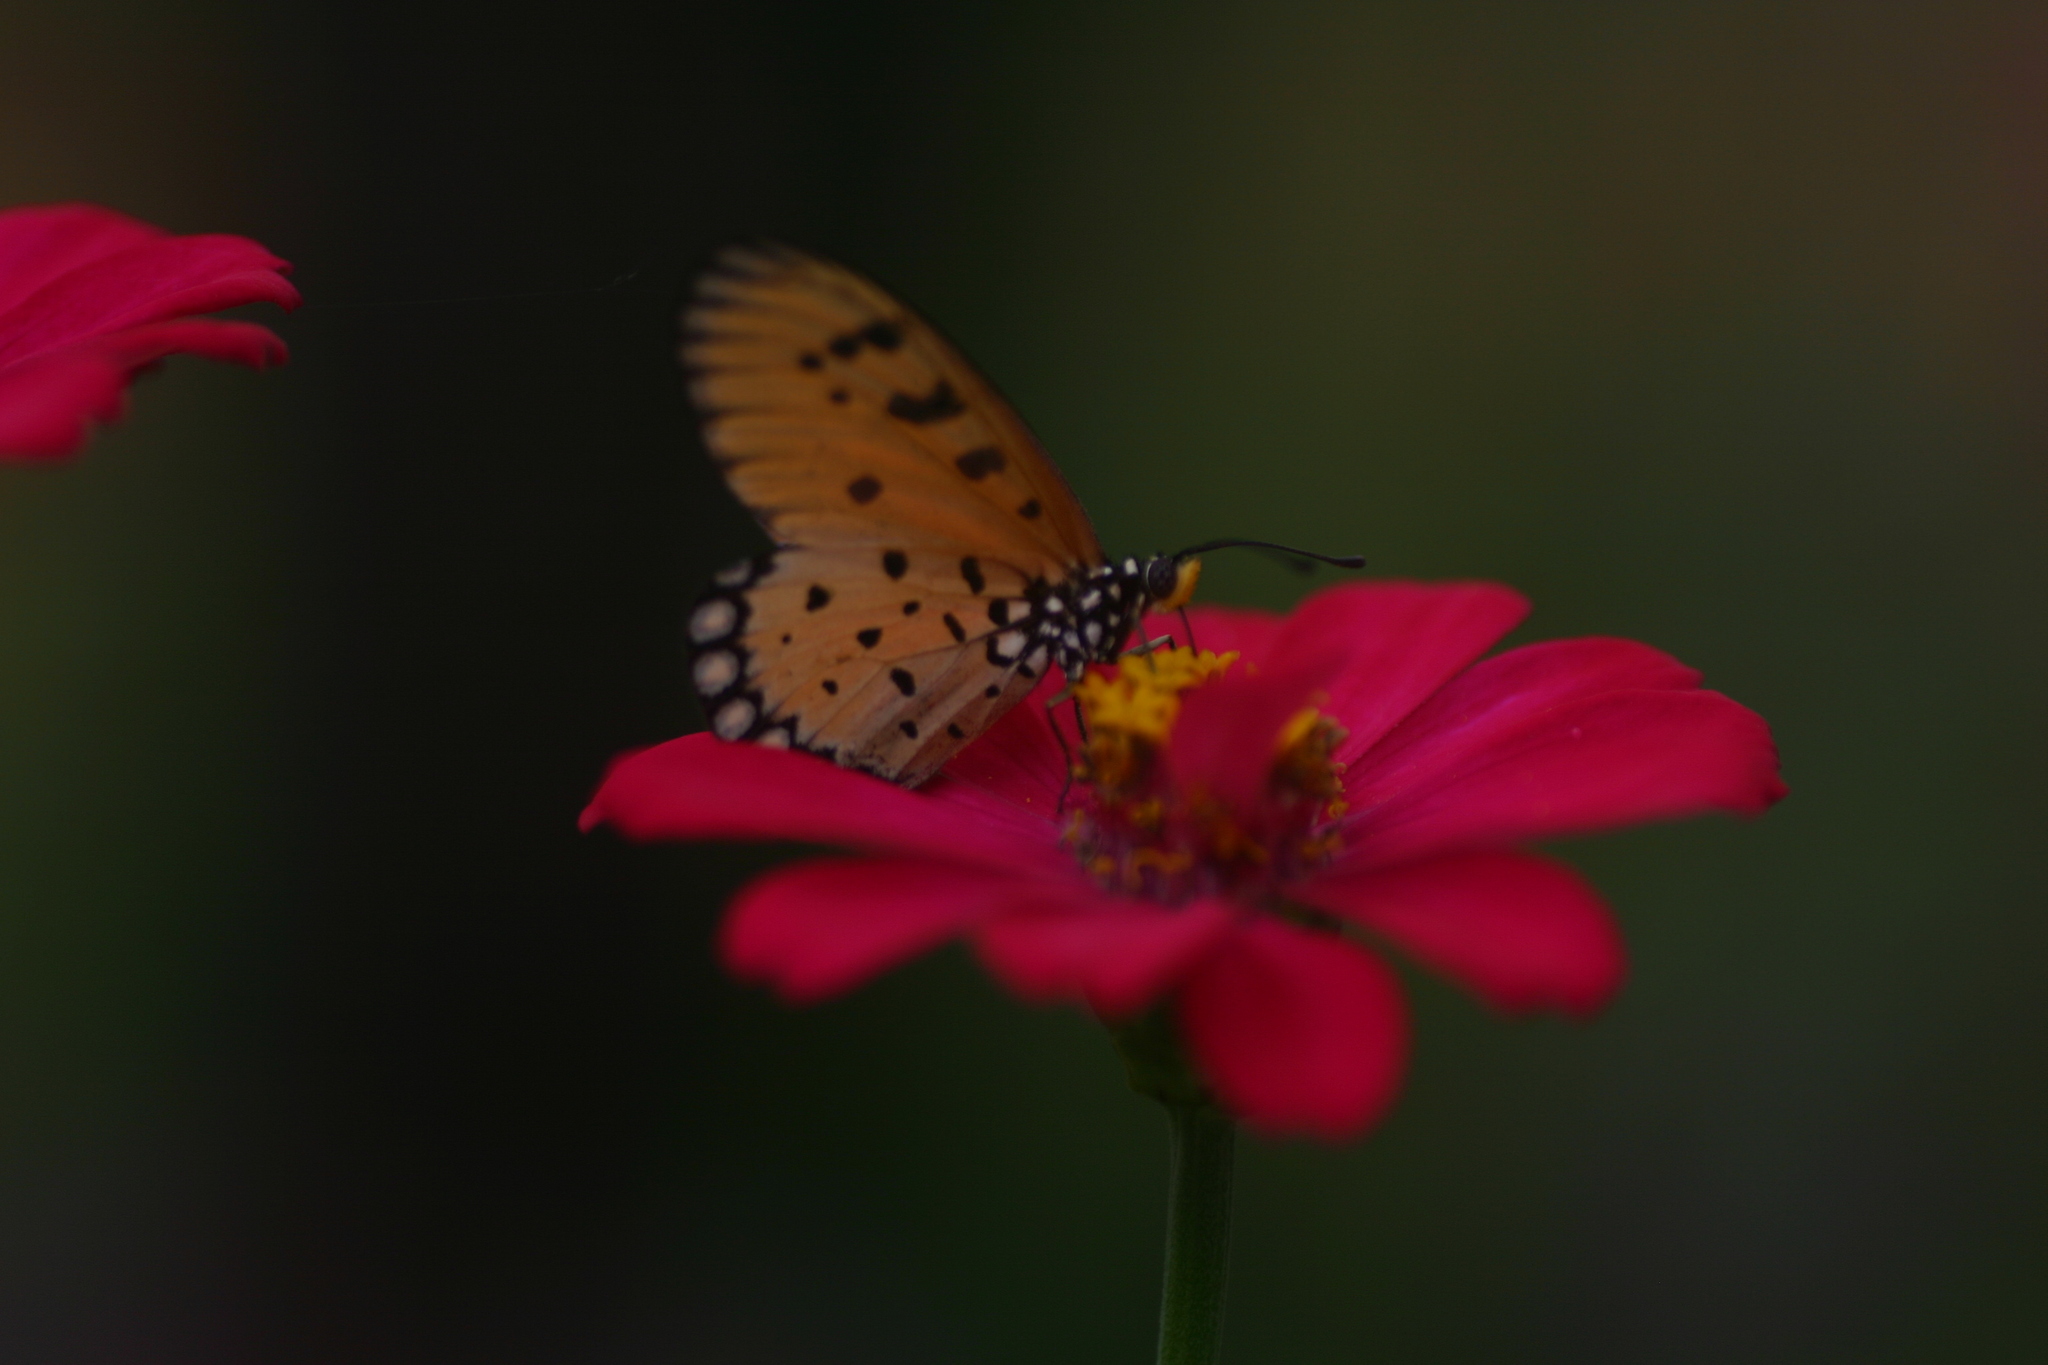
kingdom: Animalia
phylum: Arthropoda
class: Insecta
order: Lepidoptera
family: Nymphalidae
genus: Acraea
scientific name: Acraea terpsicore
